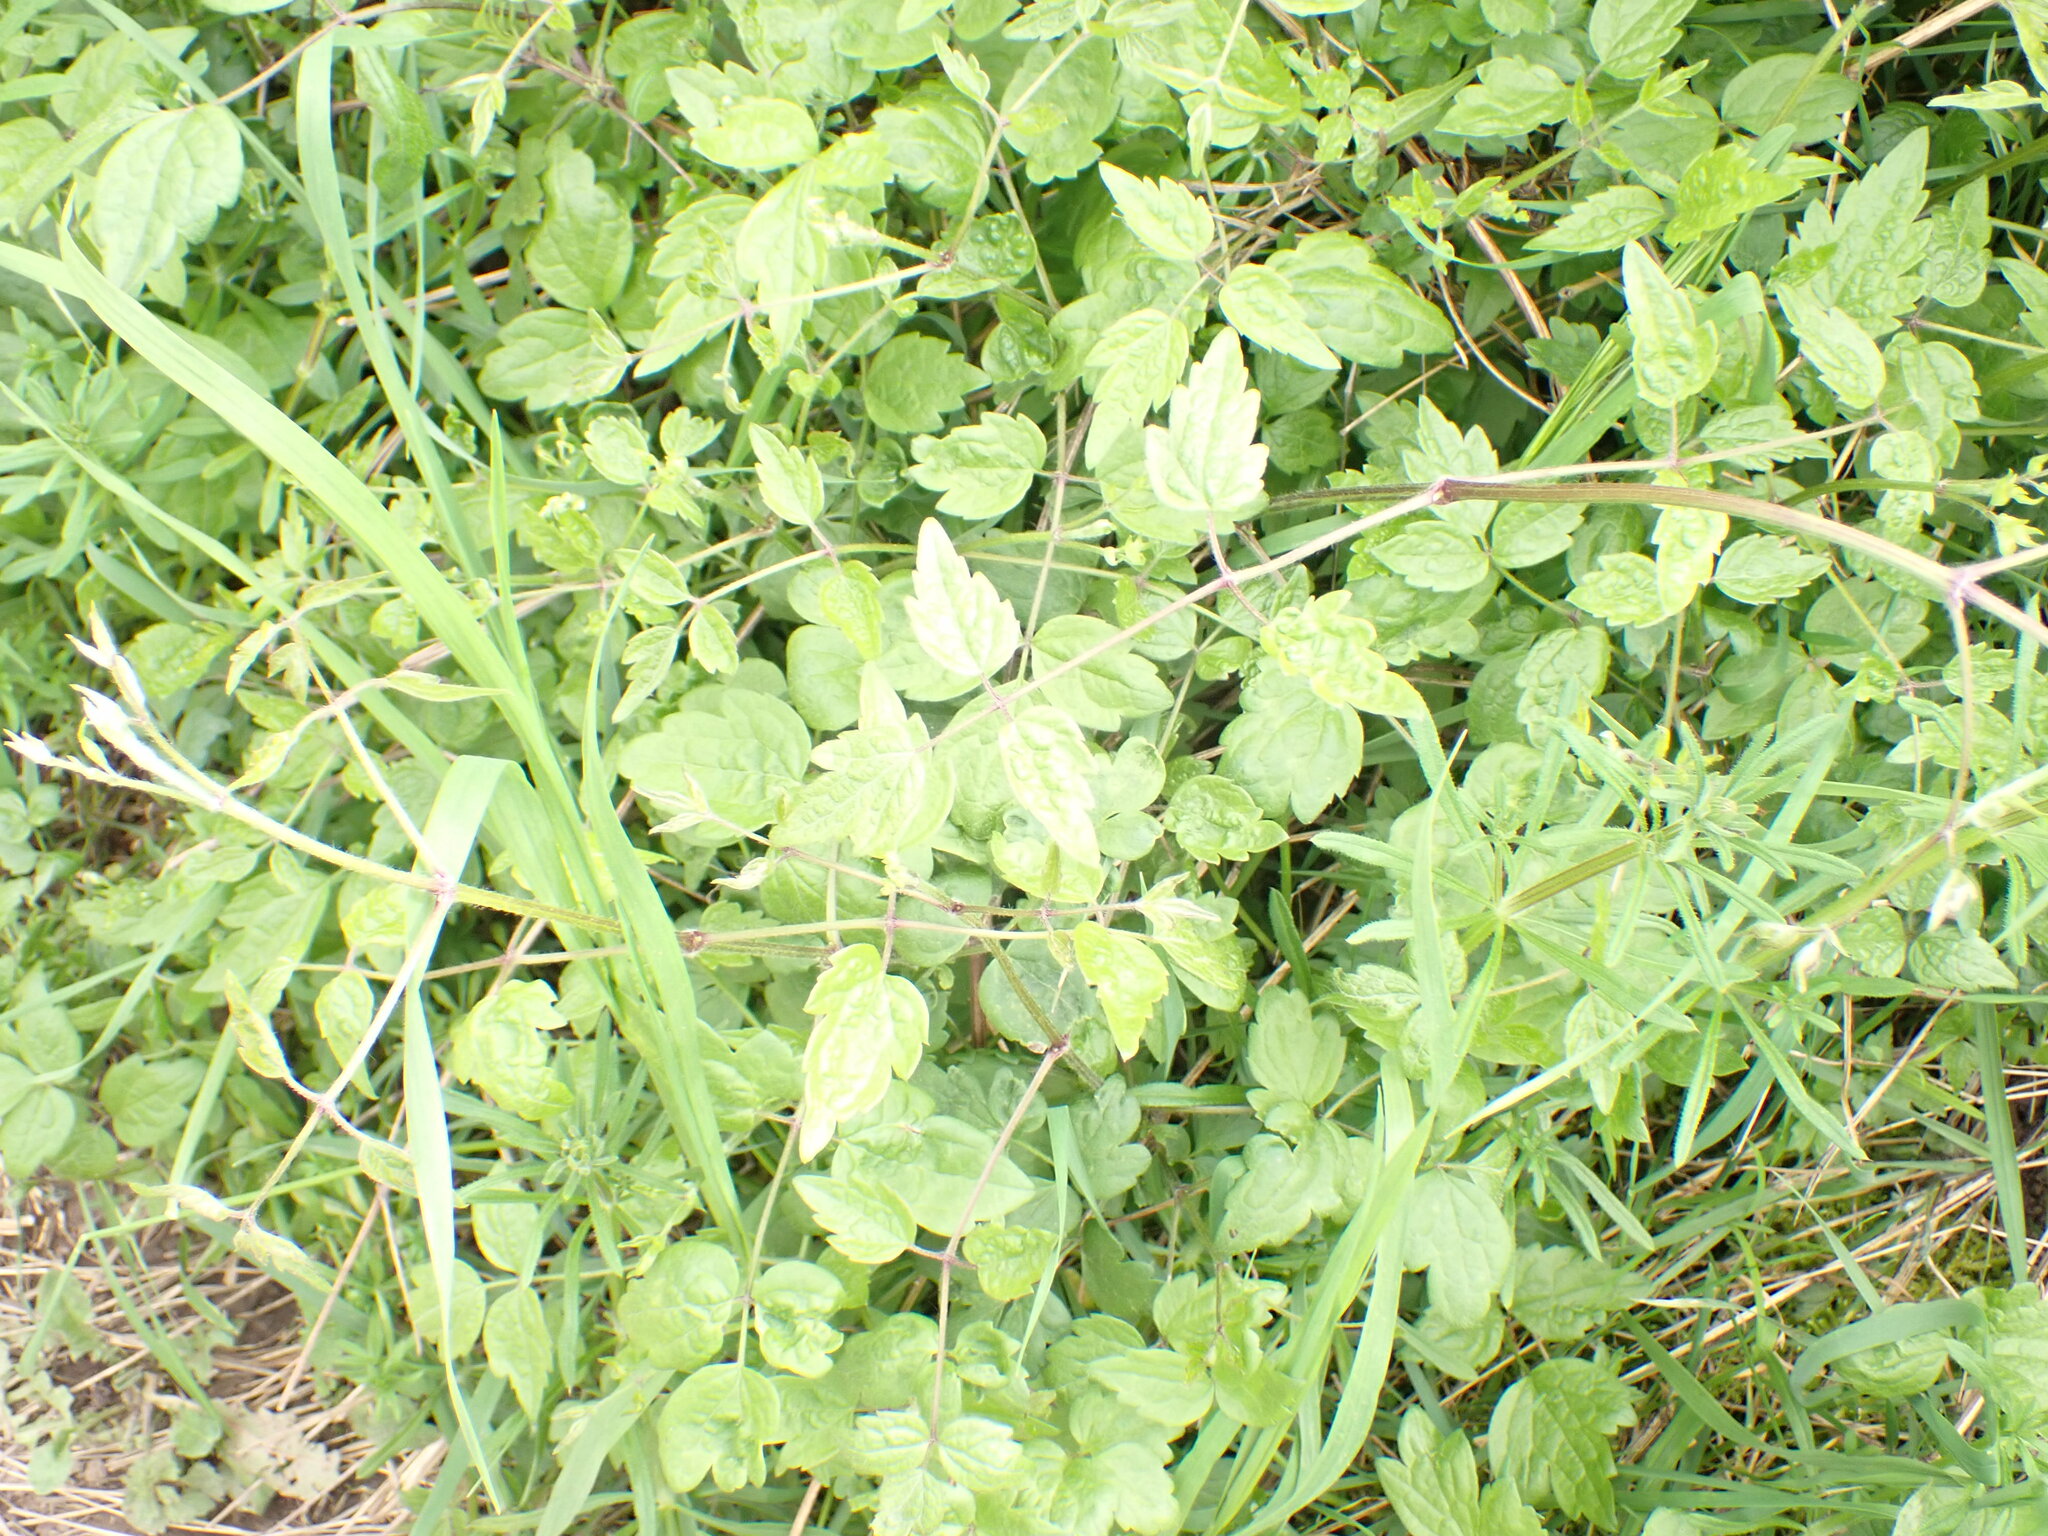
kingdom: Plantae
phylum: Tracheophyta
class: Magnoliopsida
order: Ranunculales
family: Ranunculaceae
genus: Clematis
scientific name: Clematis vitalba
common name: Evergreen clematis
